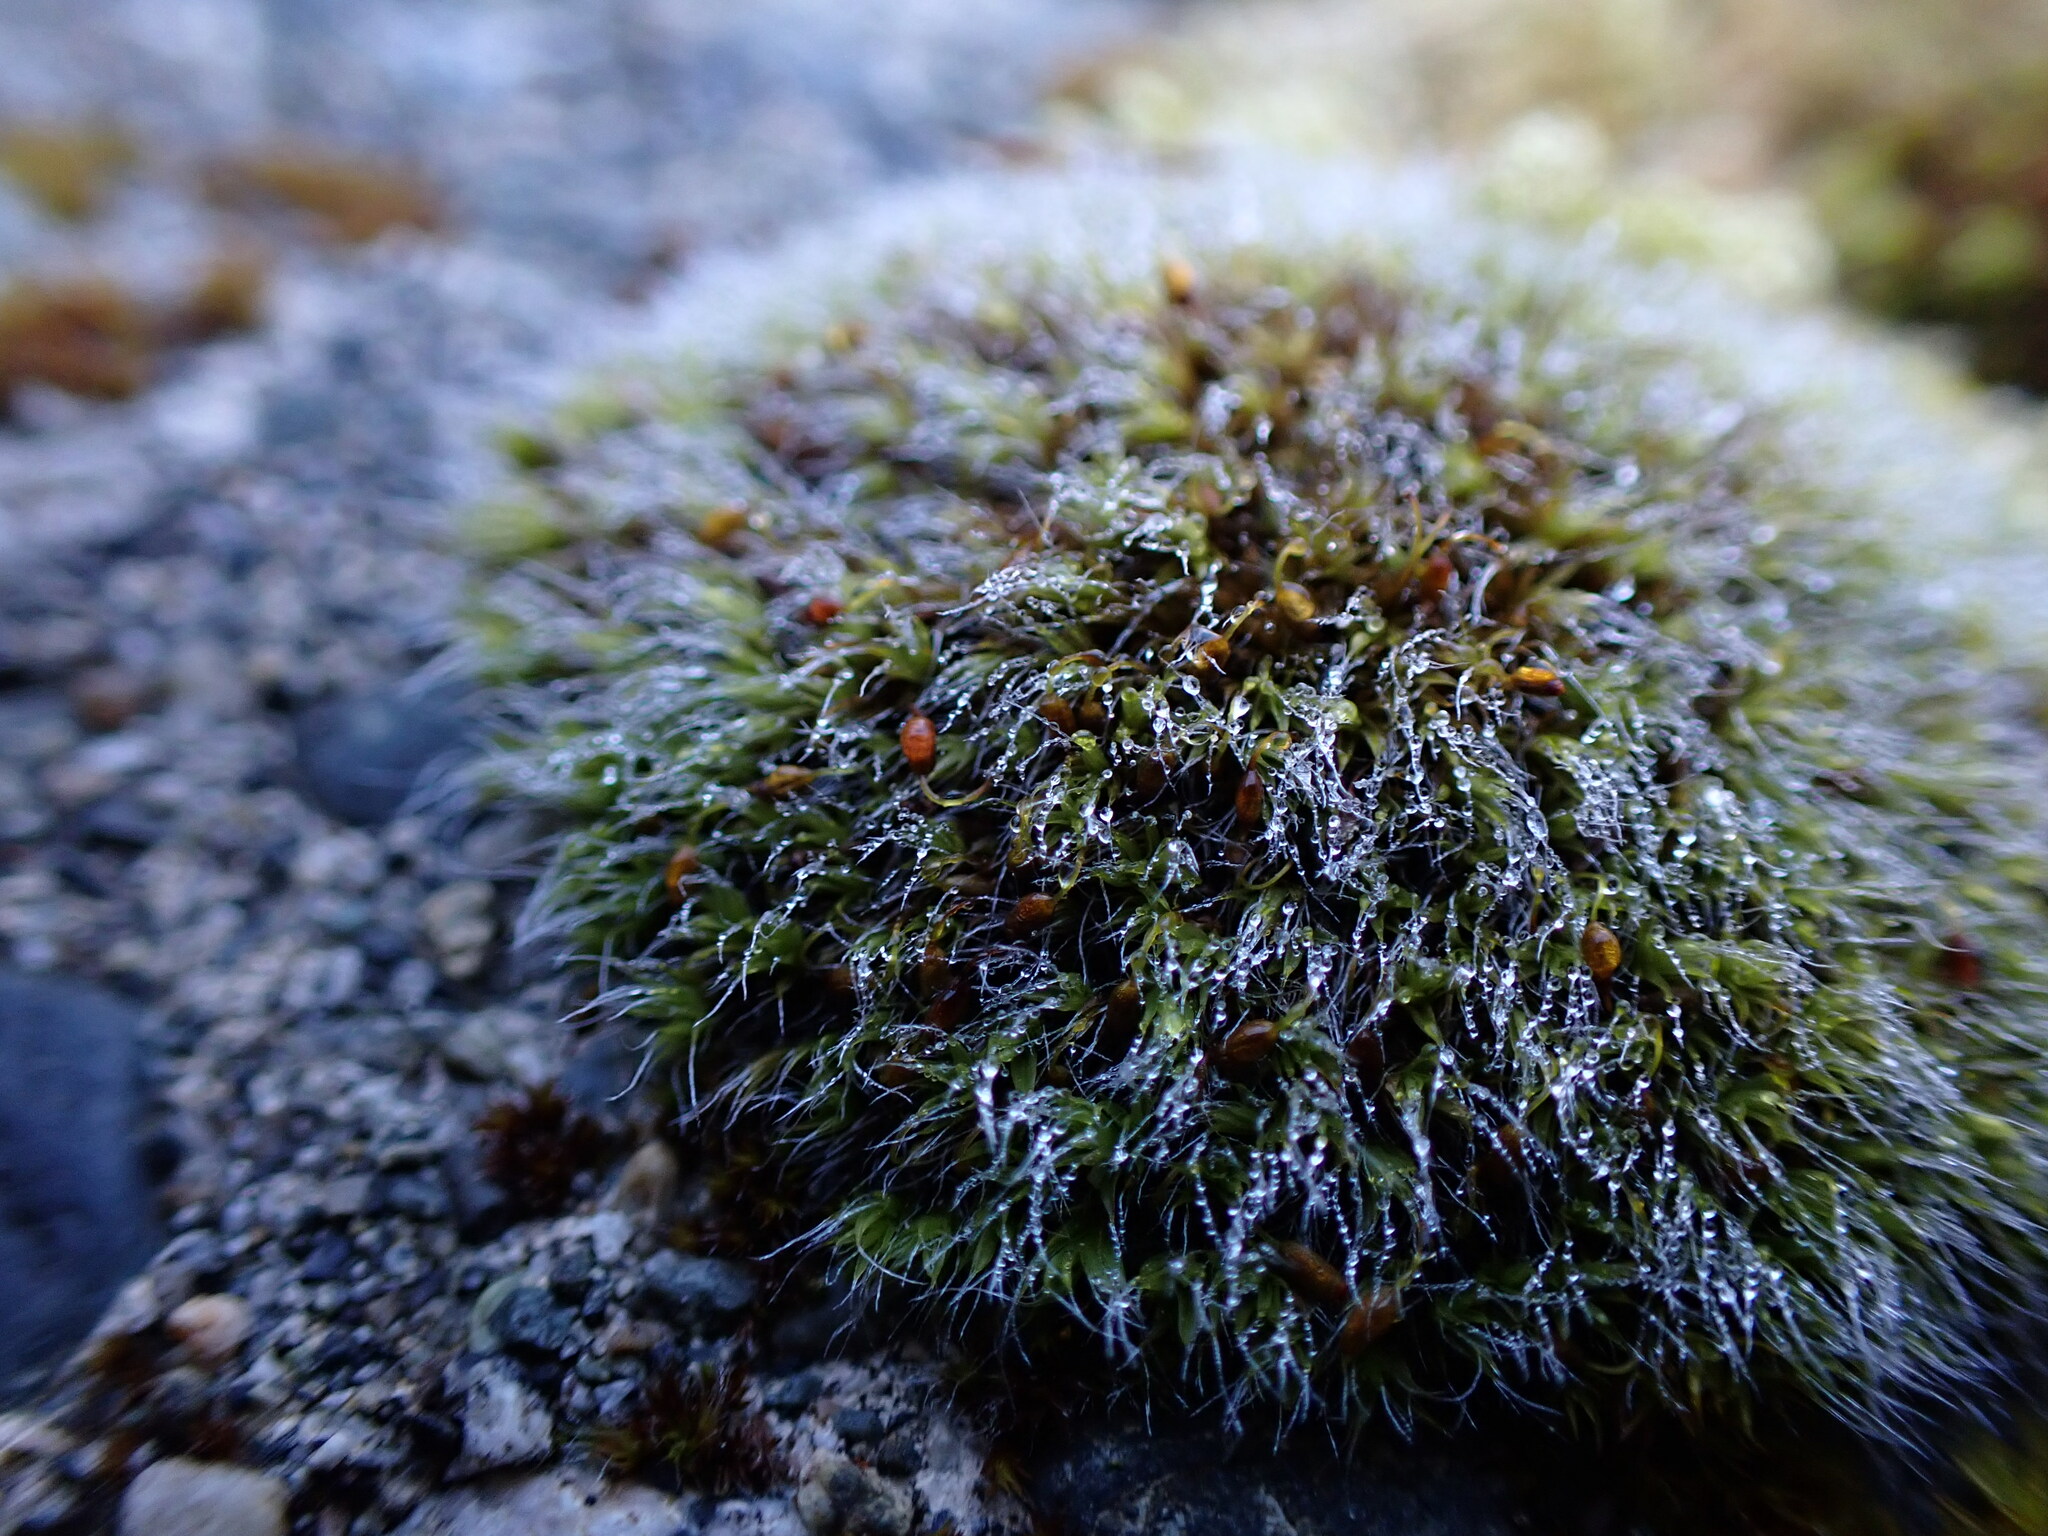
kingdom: Plantae
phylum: Bryophyta
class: Bryopsida
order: Grimmiales
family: Grimmiaceae
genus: Grimmia
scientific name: Grimmia pulvinata
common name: Grey-cushioned grimmia
